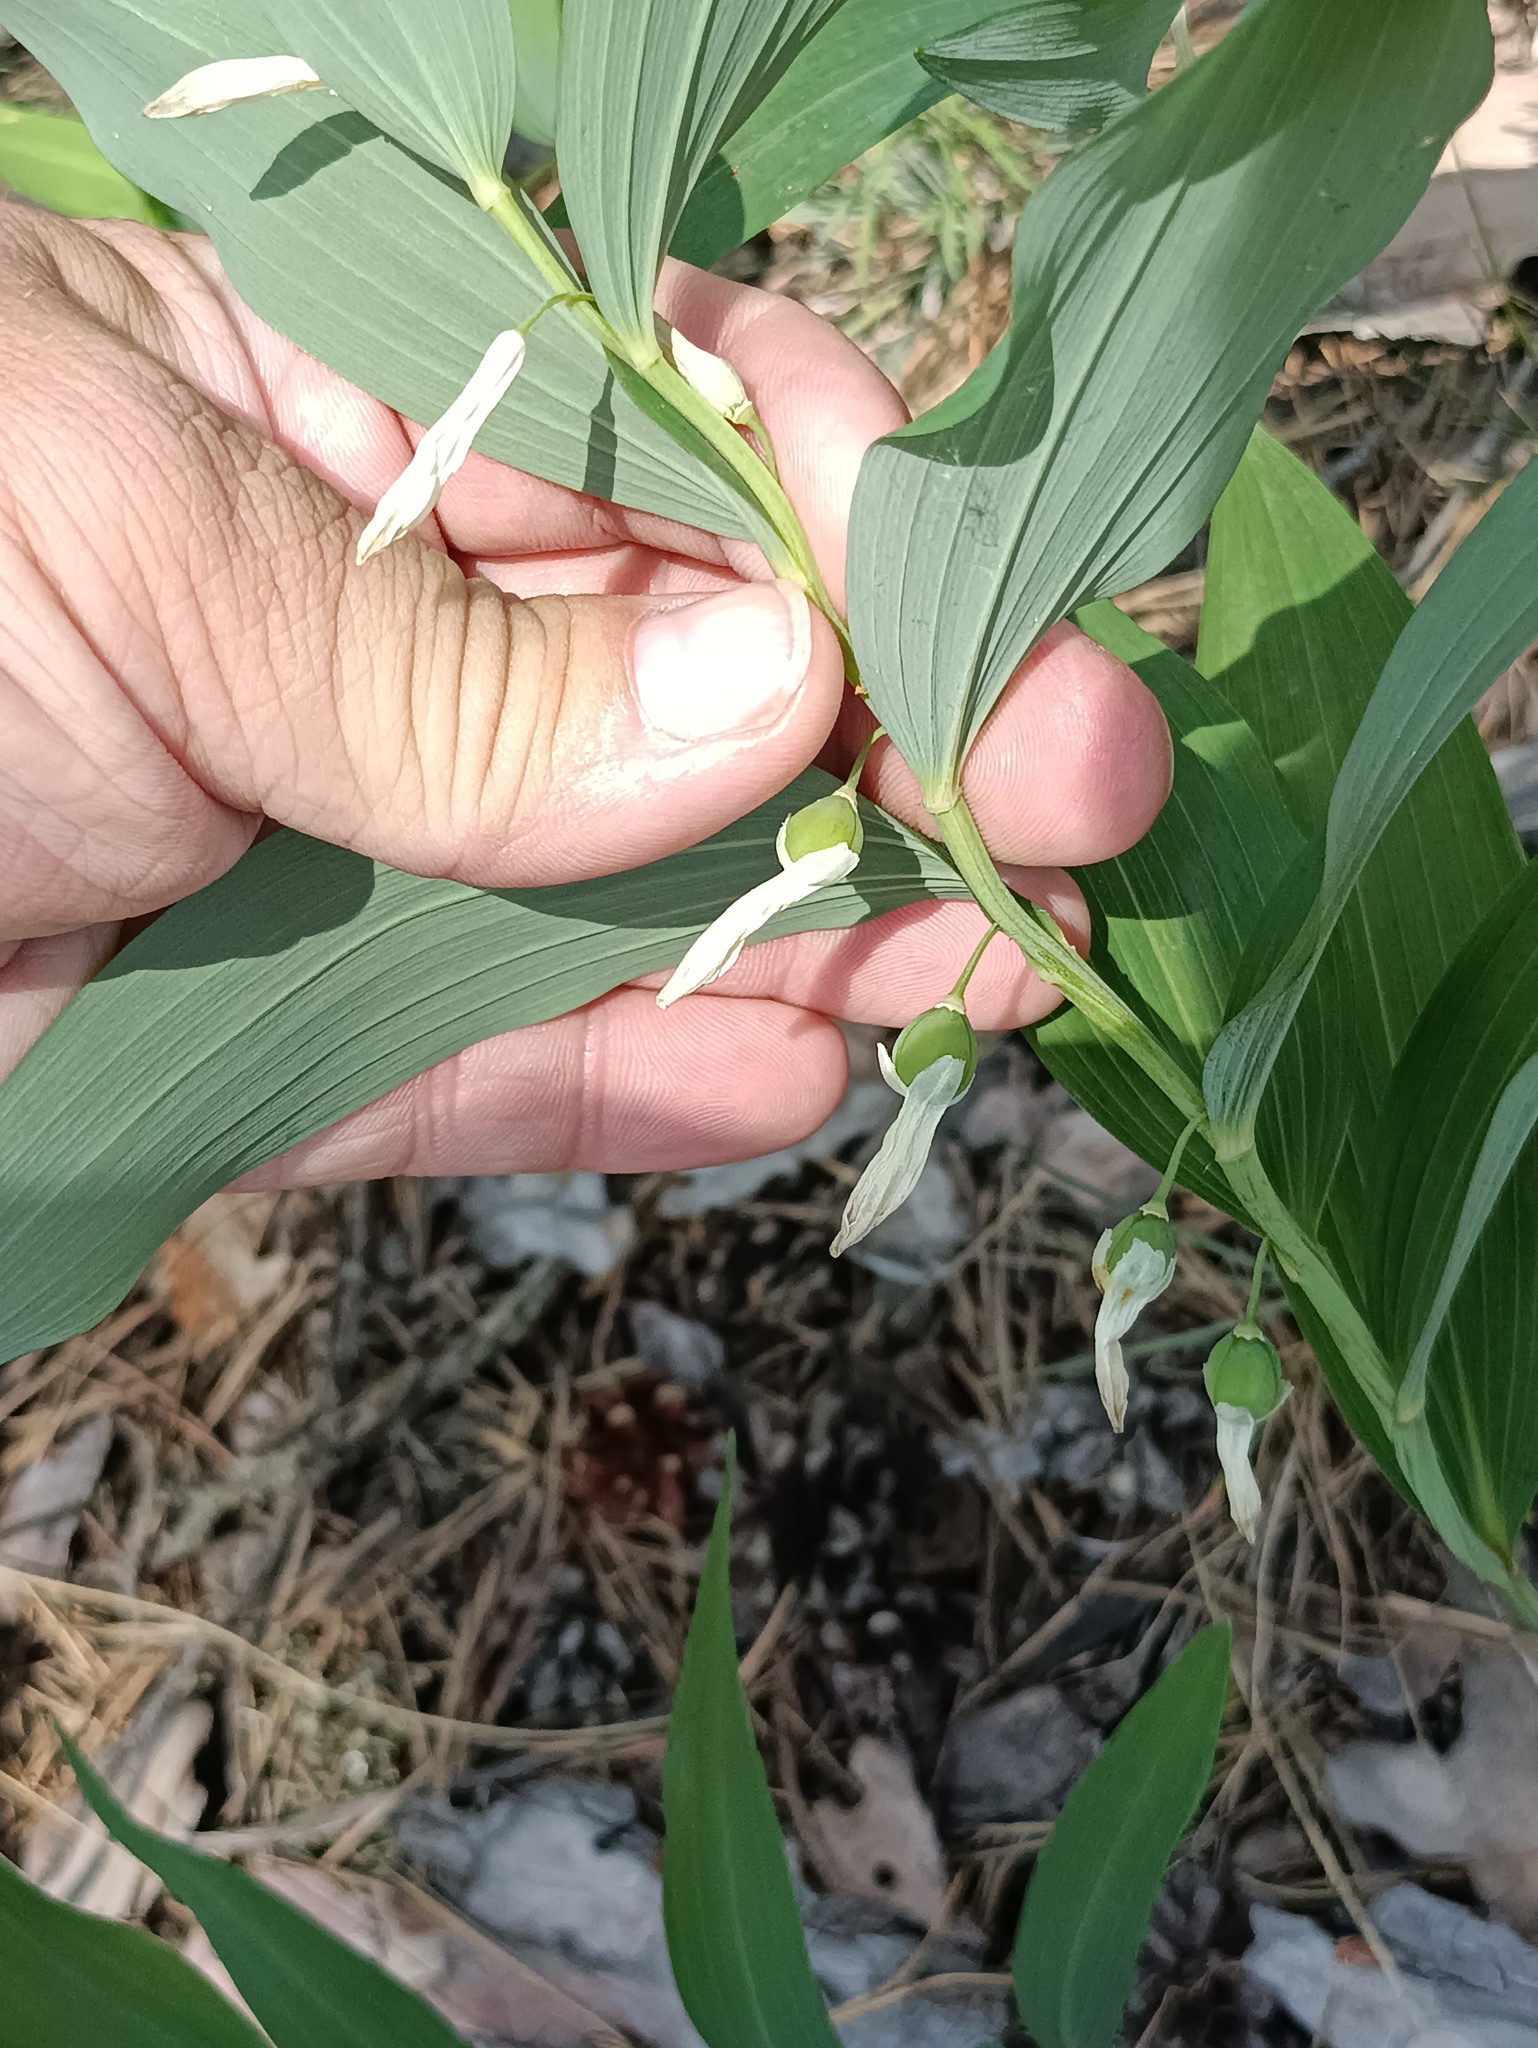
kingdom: Plantae
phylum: Tracheophyta
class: Liliopsida
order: Asparagales
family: Asparagaceae
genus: Polygonatum
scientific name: Polygonatum odoratum
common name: Angular solomon's-seal
